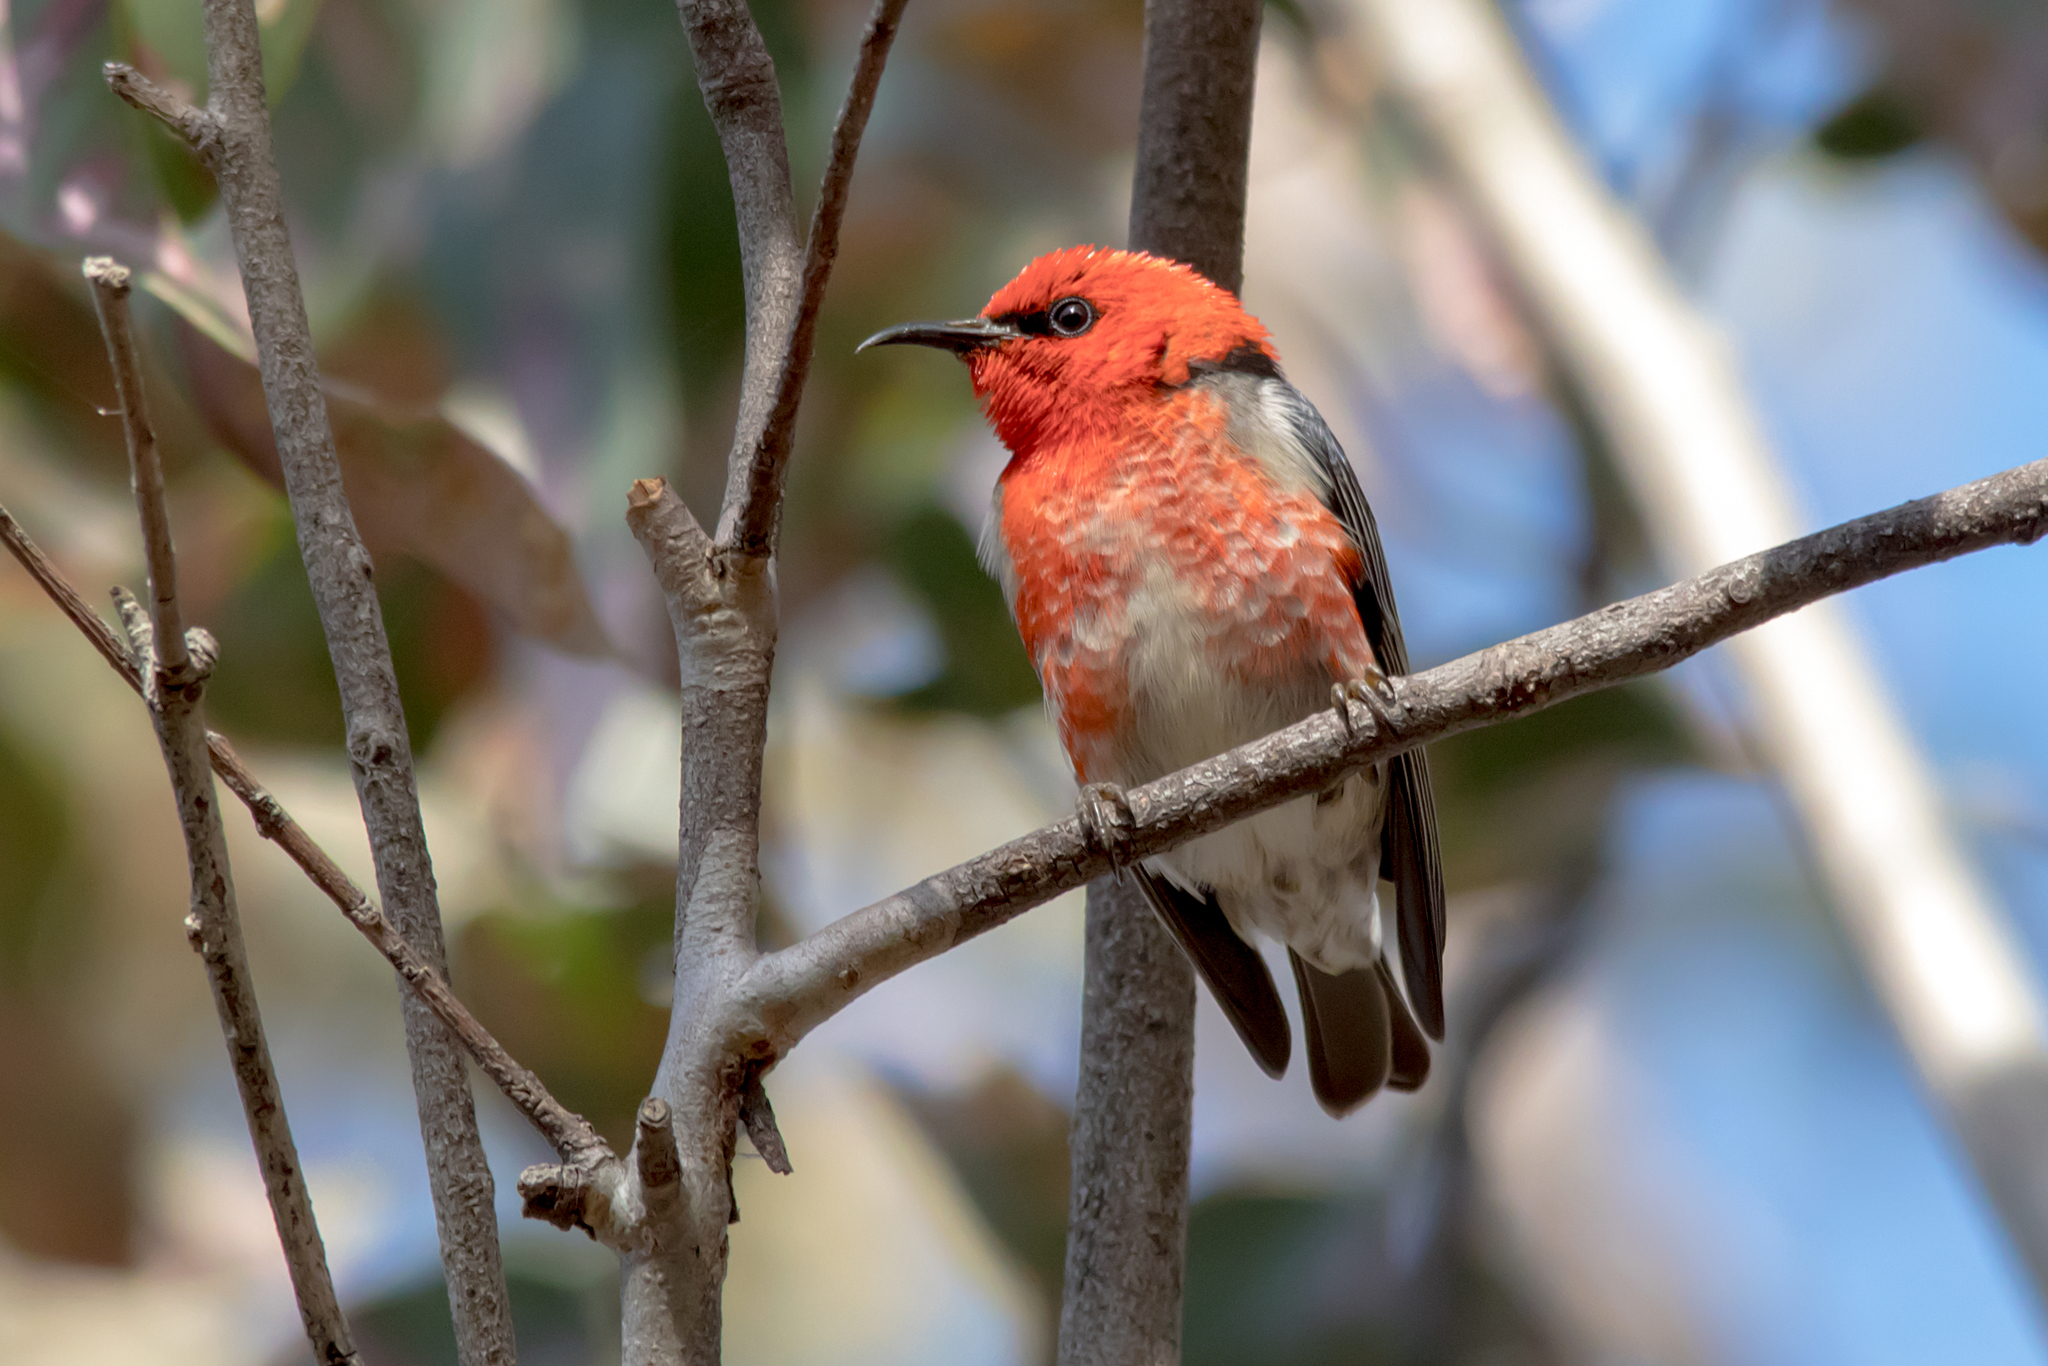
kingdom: Animalia
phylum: Chordata
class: Aves
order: Passeriformes
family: Meliphagidae
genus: Myzomela
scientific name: Myzomela sanguinolenta
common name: Scarlet myzomela
